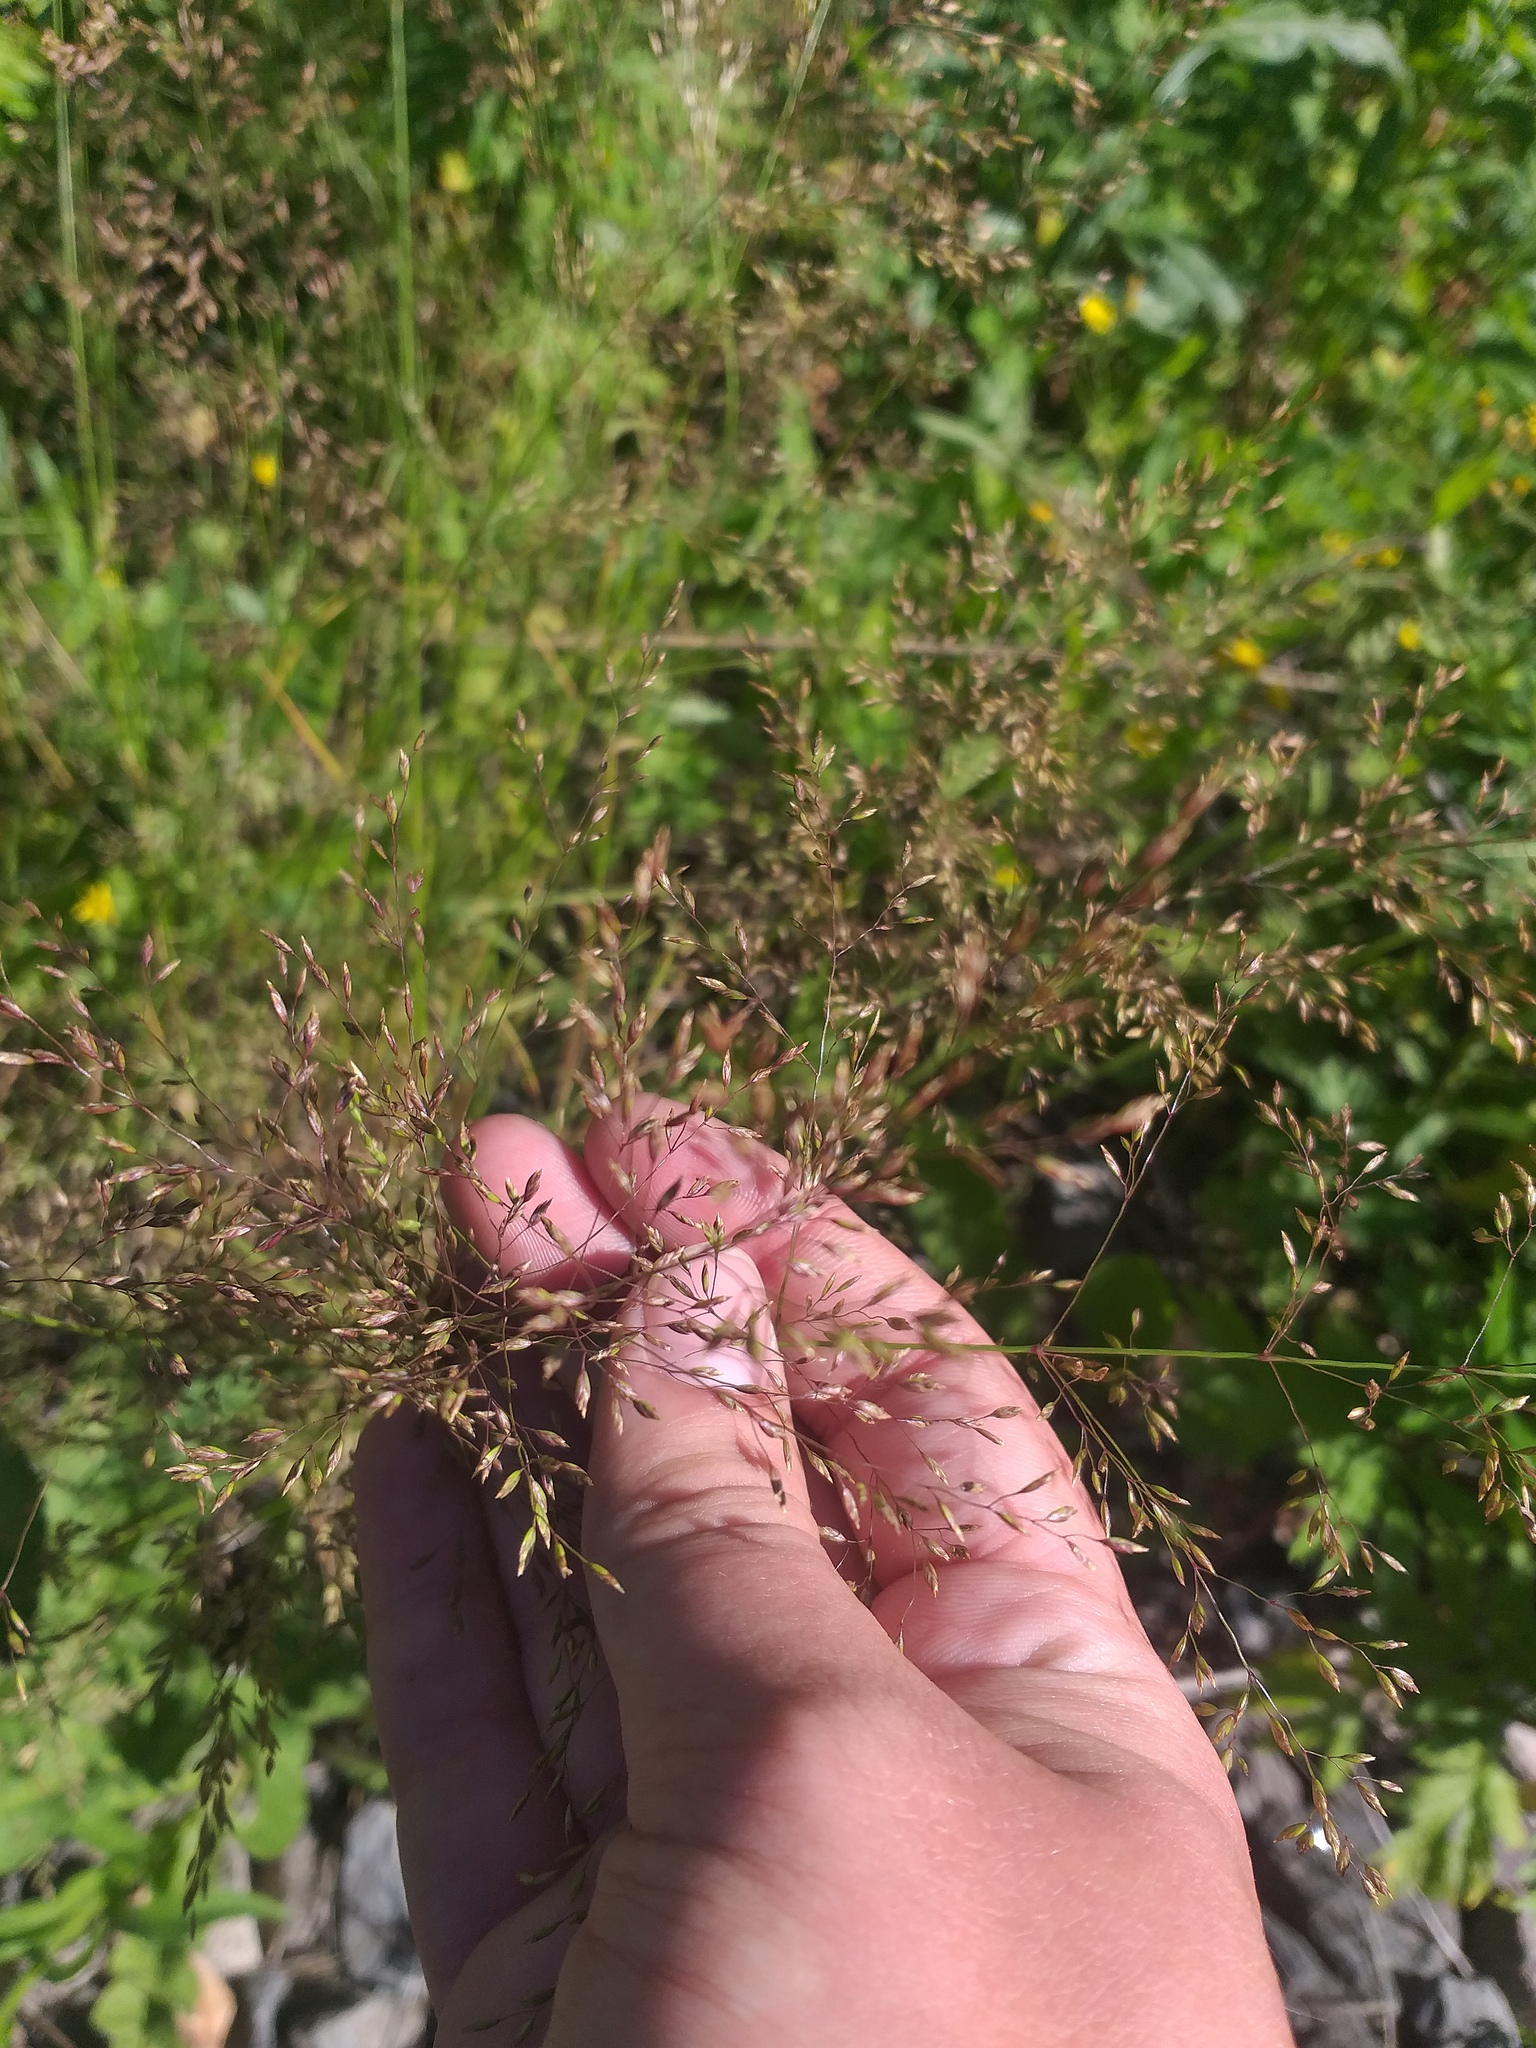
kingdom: Plantae
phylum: Tracheophyta
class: Liliopsida
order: Poales
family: Poaceae
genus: Poa
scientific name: Poa palustris
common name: Swamp meadow-grass
